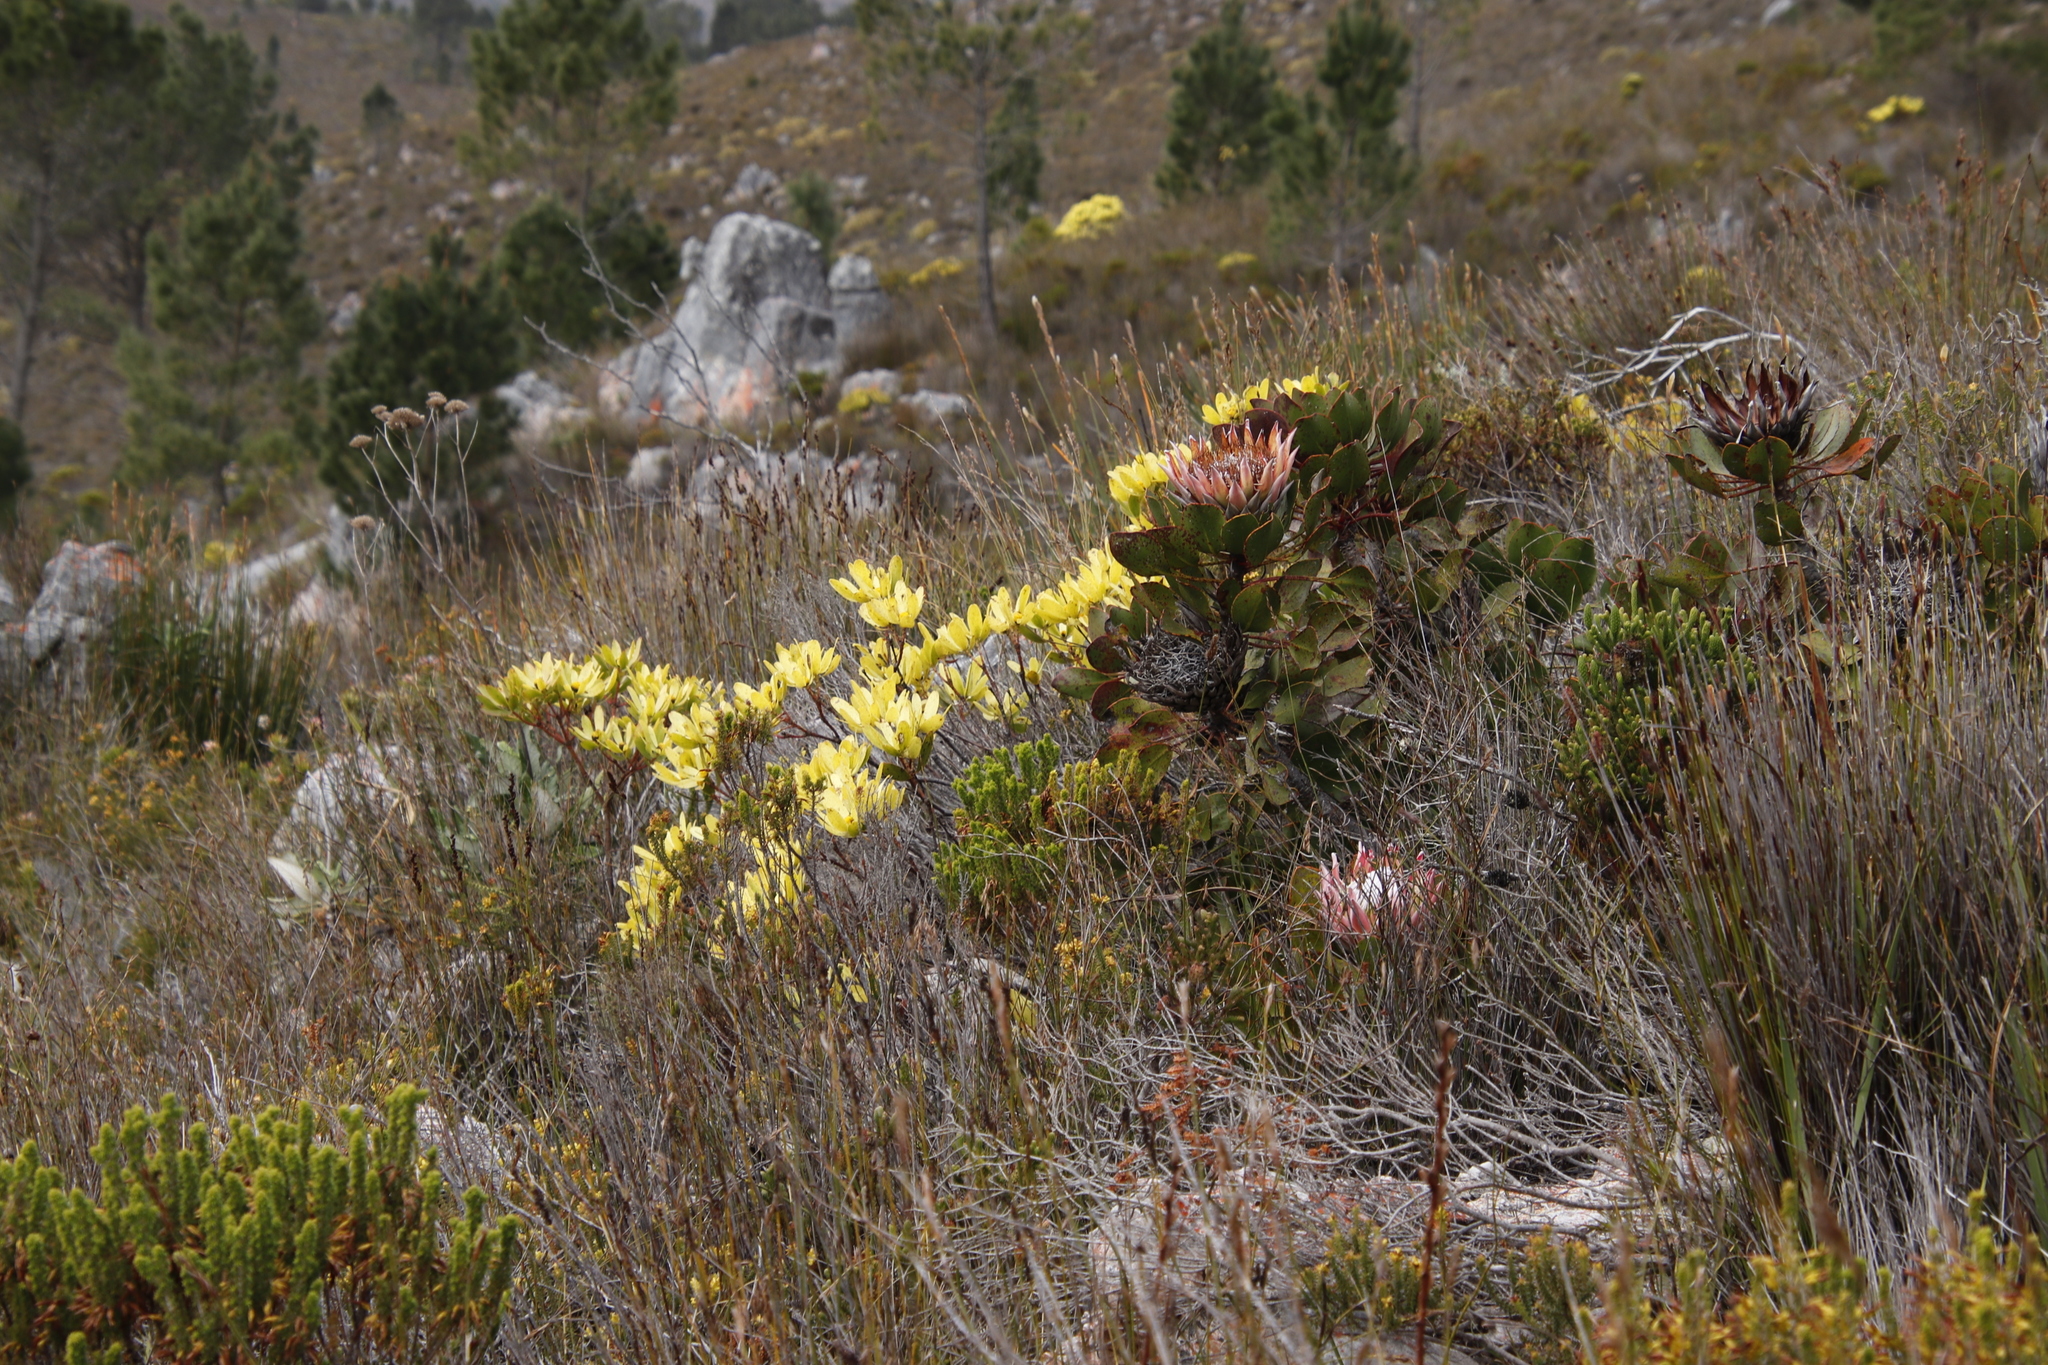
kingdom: Plantae
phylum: Tracheophyta
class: Magnoliopsida
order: Proteales
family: Proteaceae
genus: Protea
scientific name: Protea cynaroides
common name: King protea
